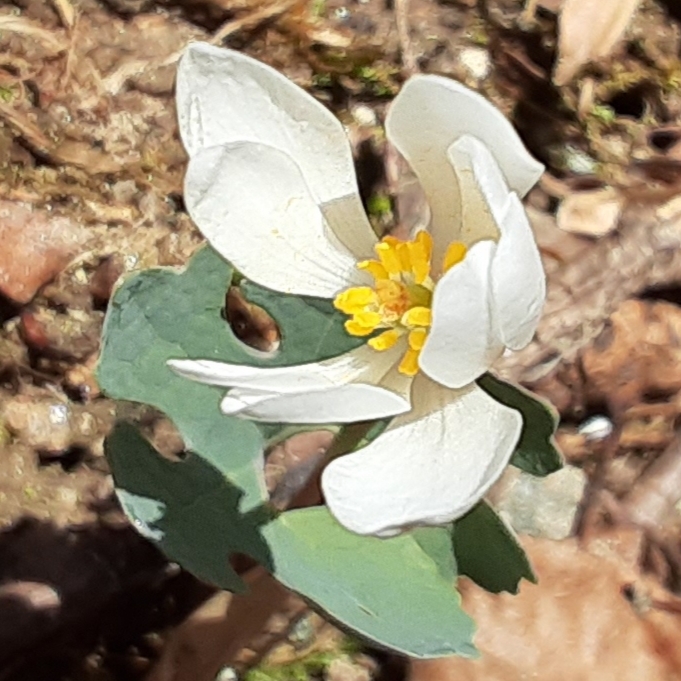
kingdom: Plantae
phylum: Tracheophyta
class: Magnoliopsida
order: Ranunculales
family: Papaveraceae
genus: Sanguinaria
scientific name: Sanguinaria canadensis
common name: Bloodroot
